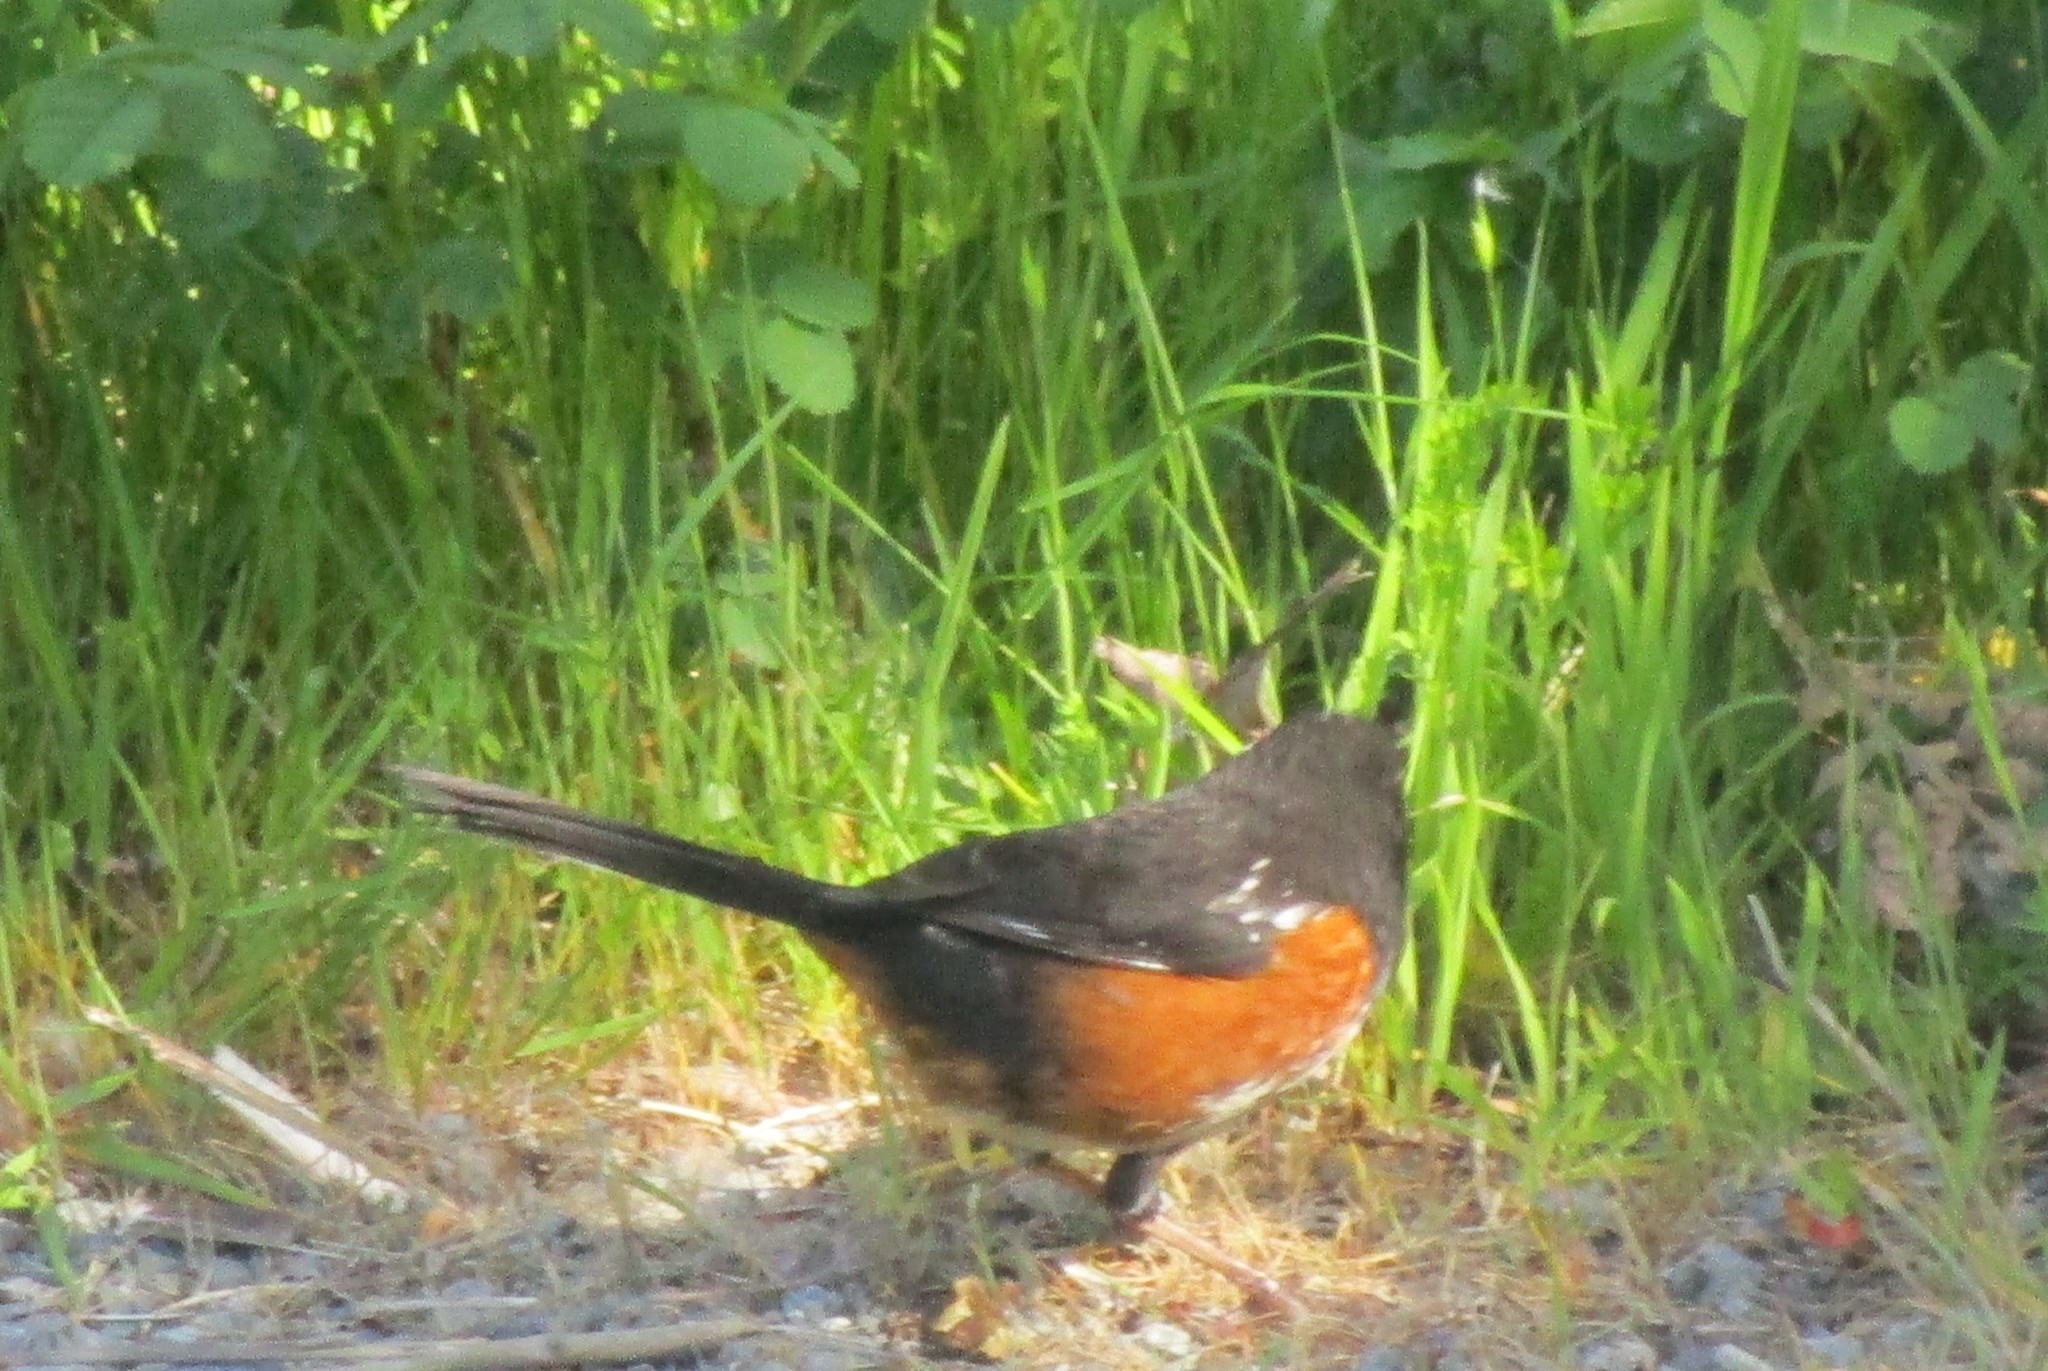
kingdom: Animalia
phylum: Chordata
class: Aves
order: Passeriformes
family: Passerellidae
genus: Pipilo
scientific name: Pipilo maculatus
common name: Spotted towhee
